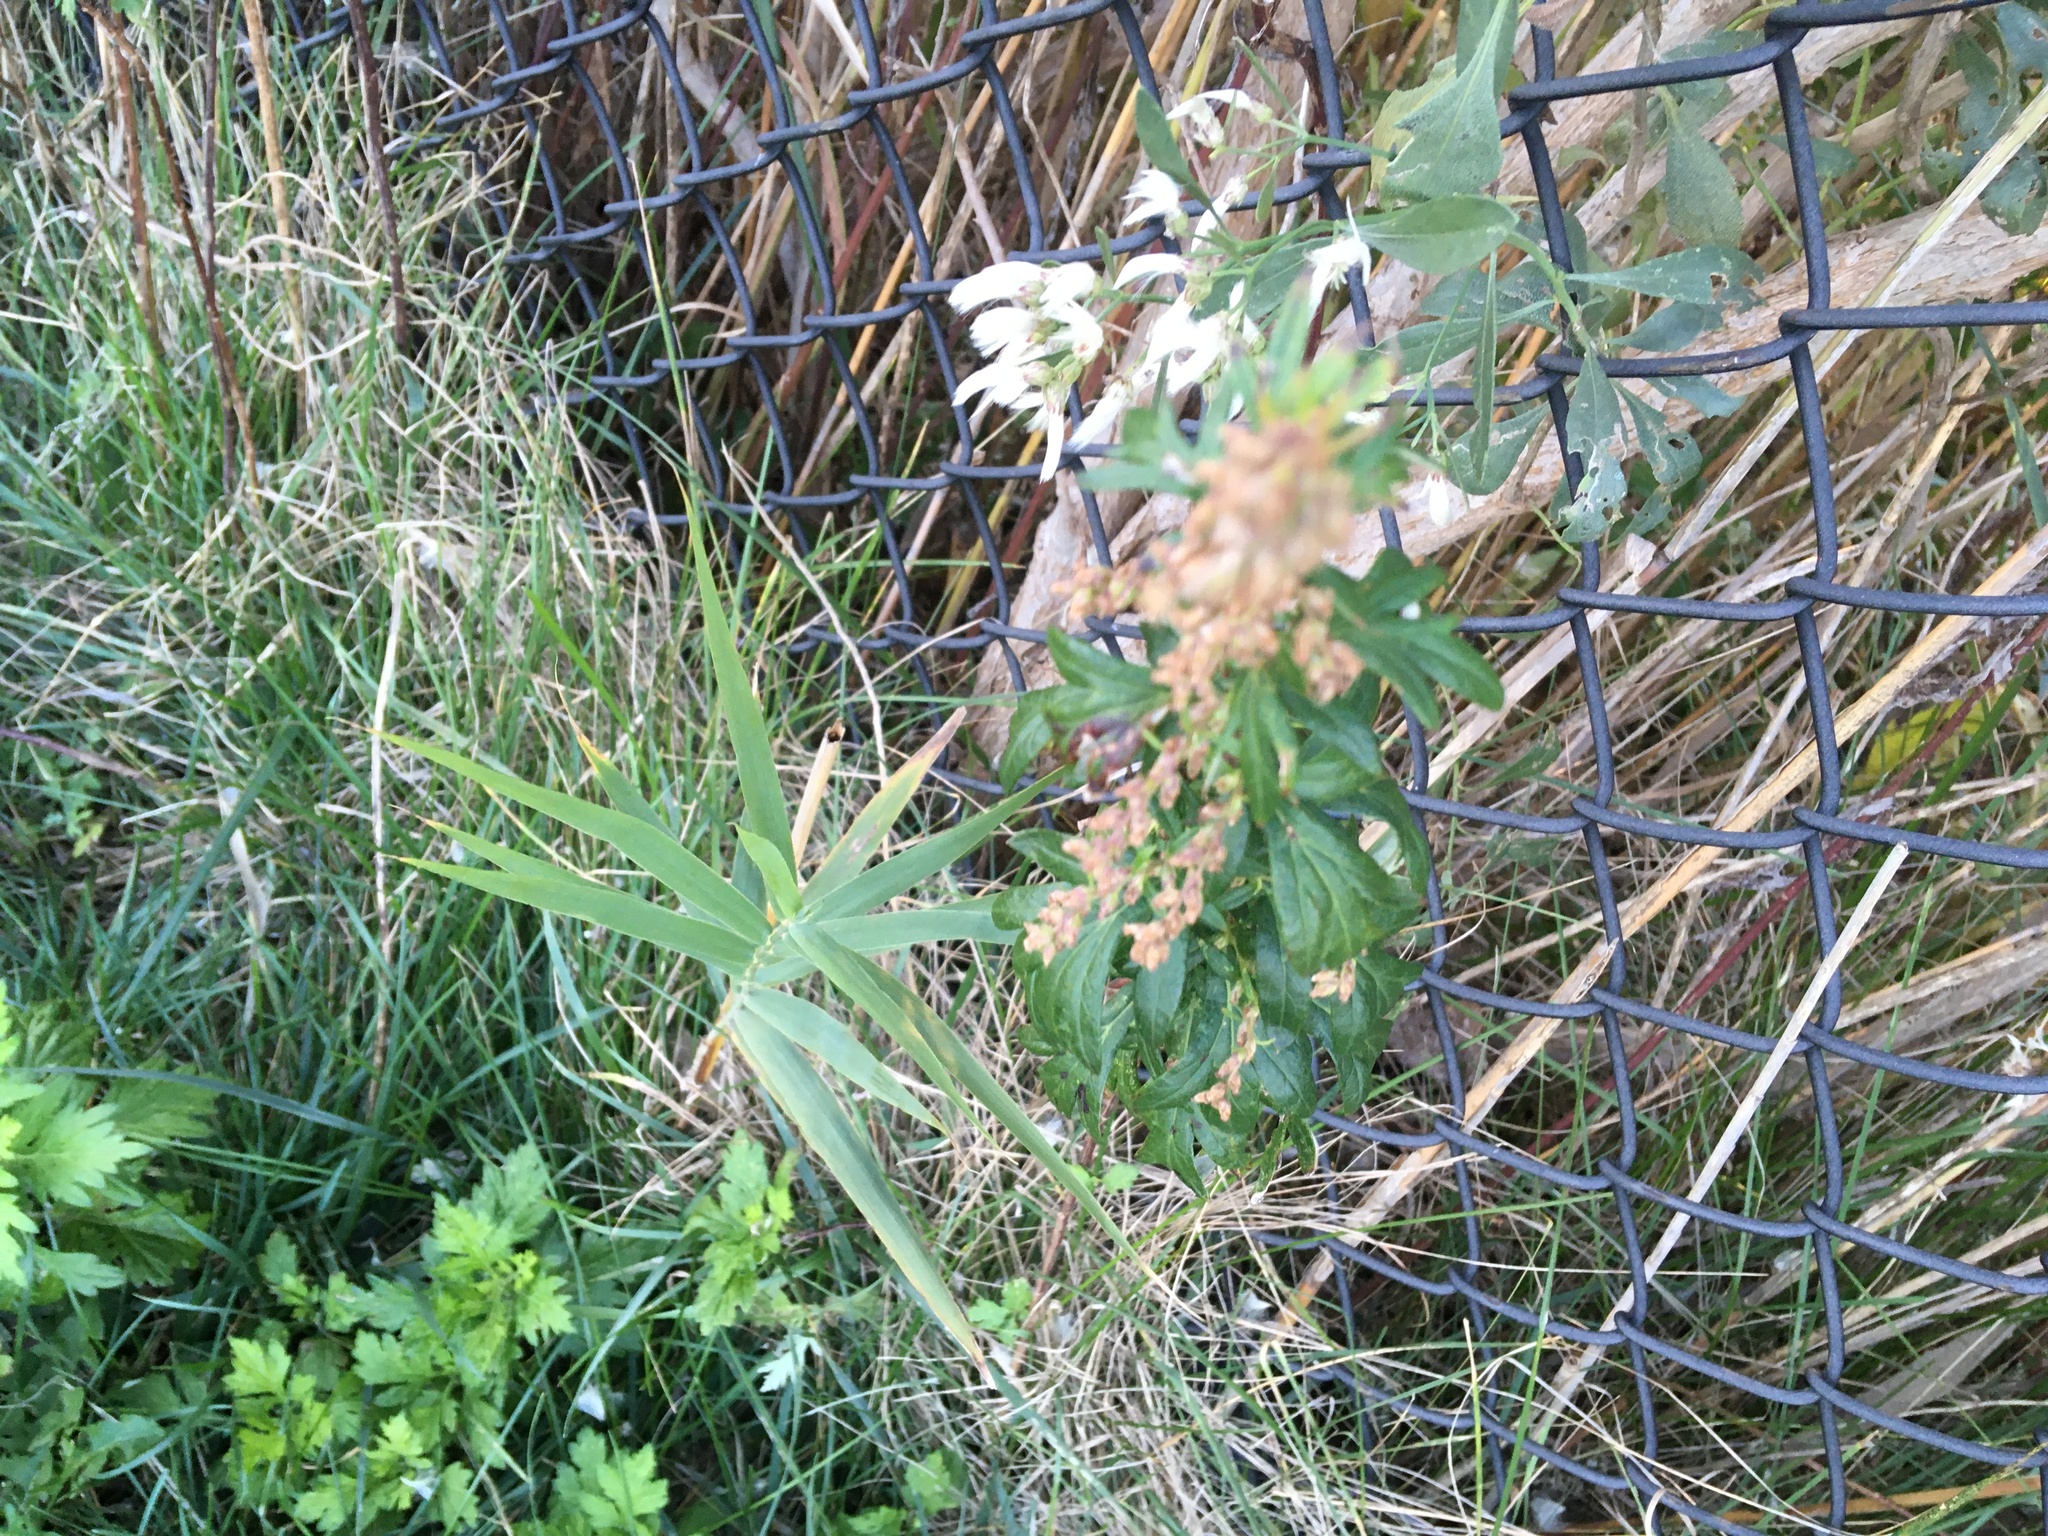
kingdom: Plantae
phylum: Tracheophyta
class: Magnoliopsida
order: Asterales
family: Asteraceae
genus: Artemisia
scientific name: Artemisia vulgaris
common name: Mugwort
